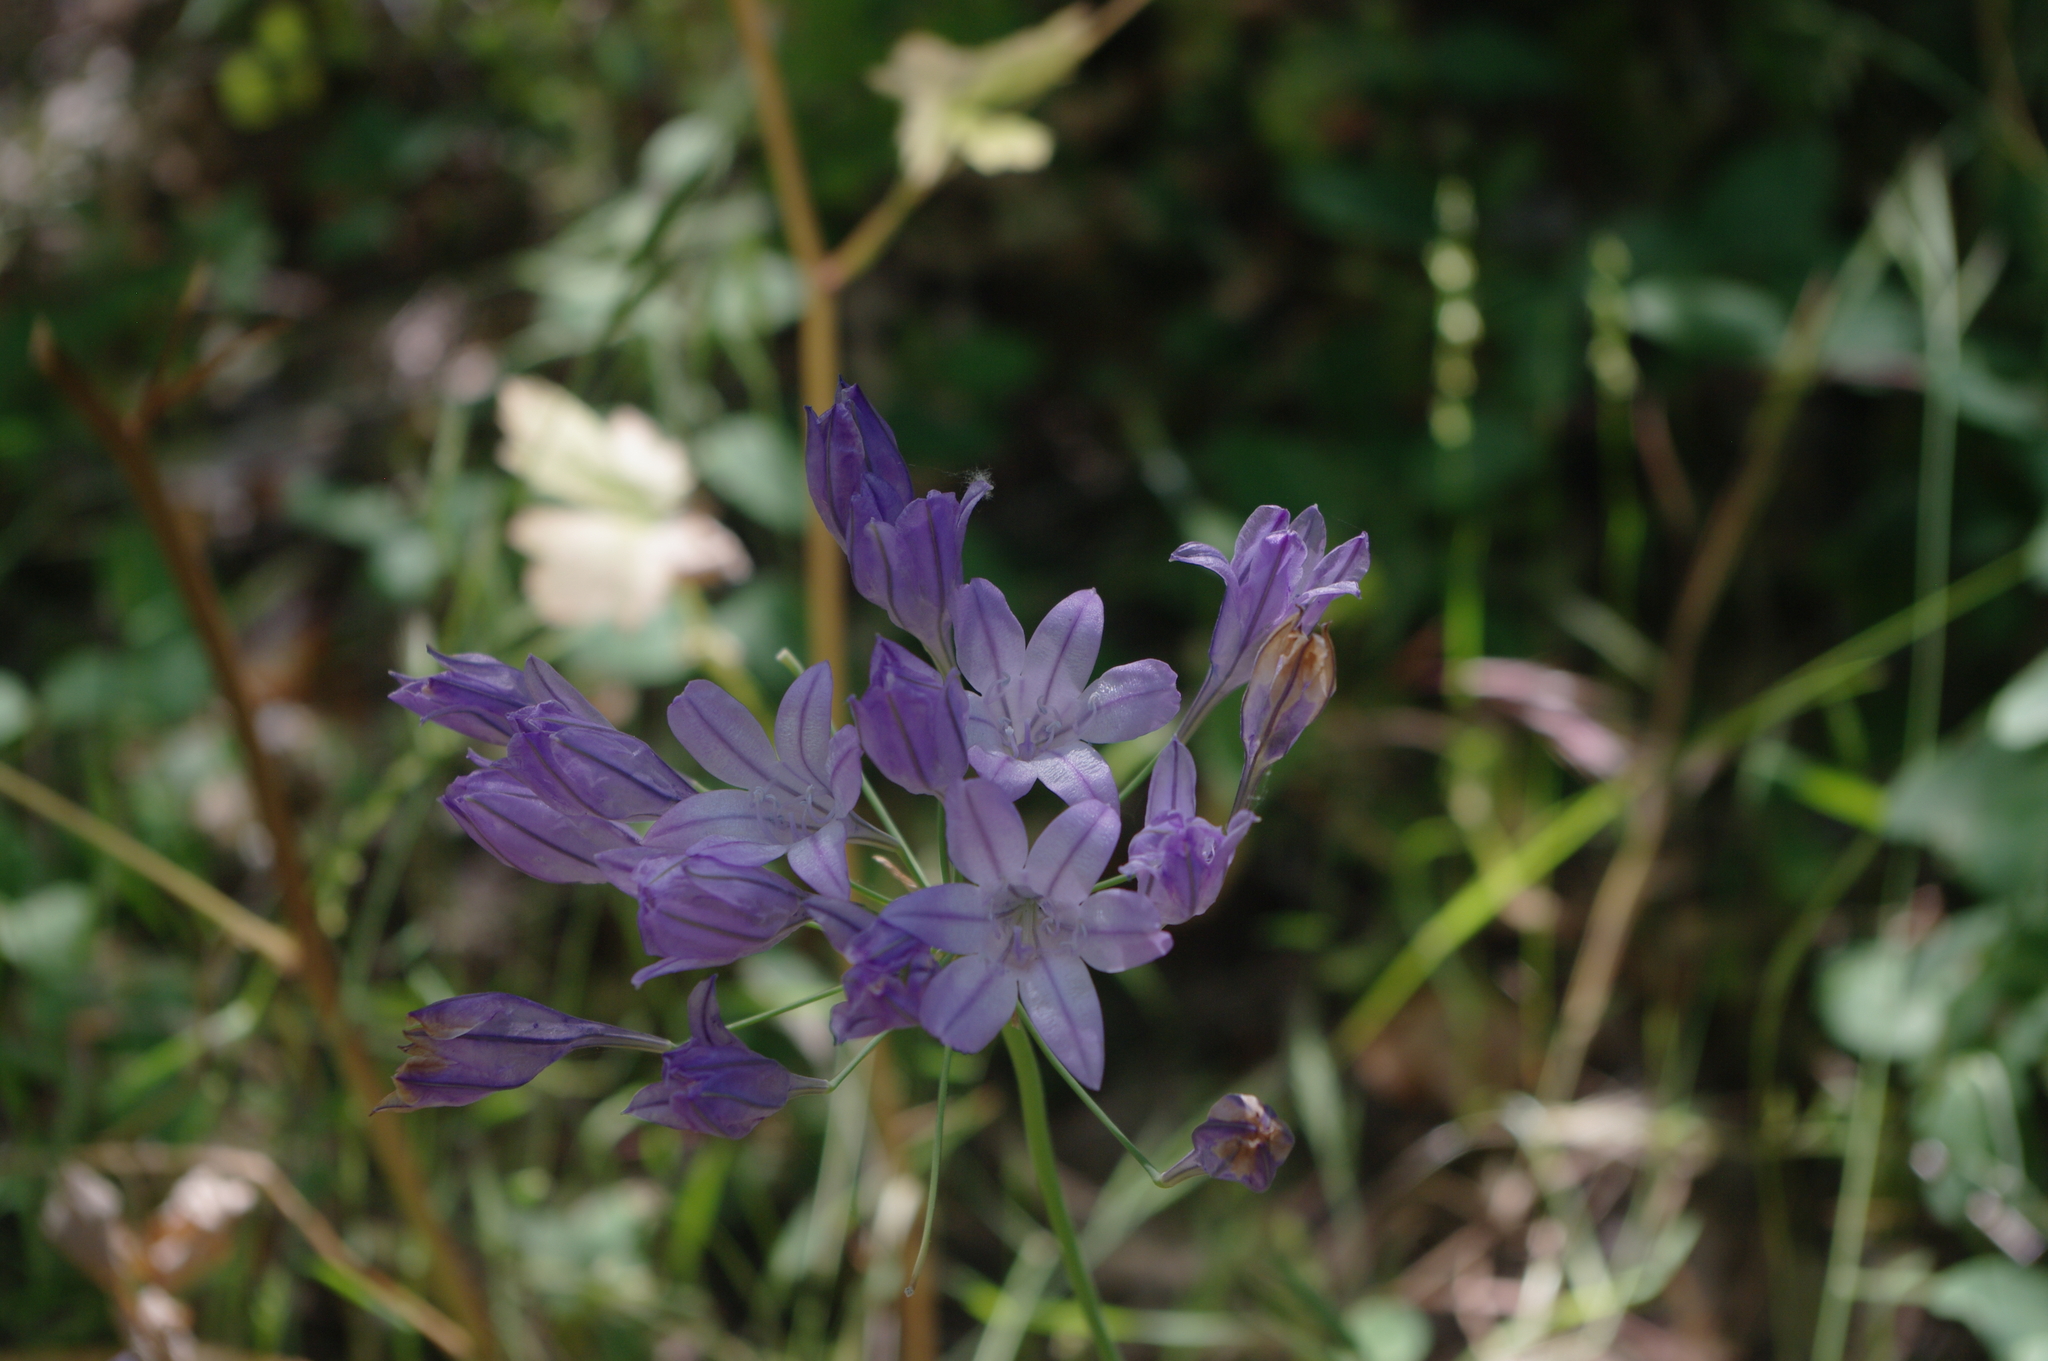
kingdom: Plantae
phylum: Tracheophyta
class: Liliopsida
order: Asparagales
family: Asparagaceae
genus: Triteleia
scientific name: Triteleia laxa
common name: Triplet-lily
